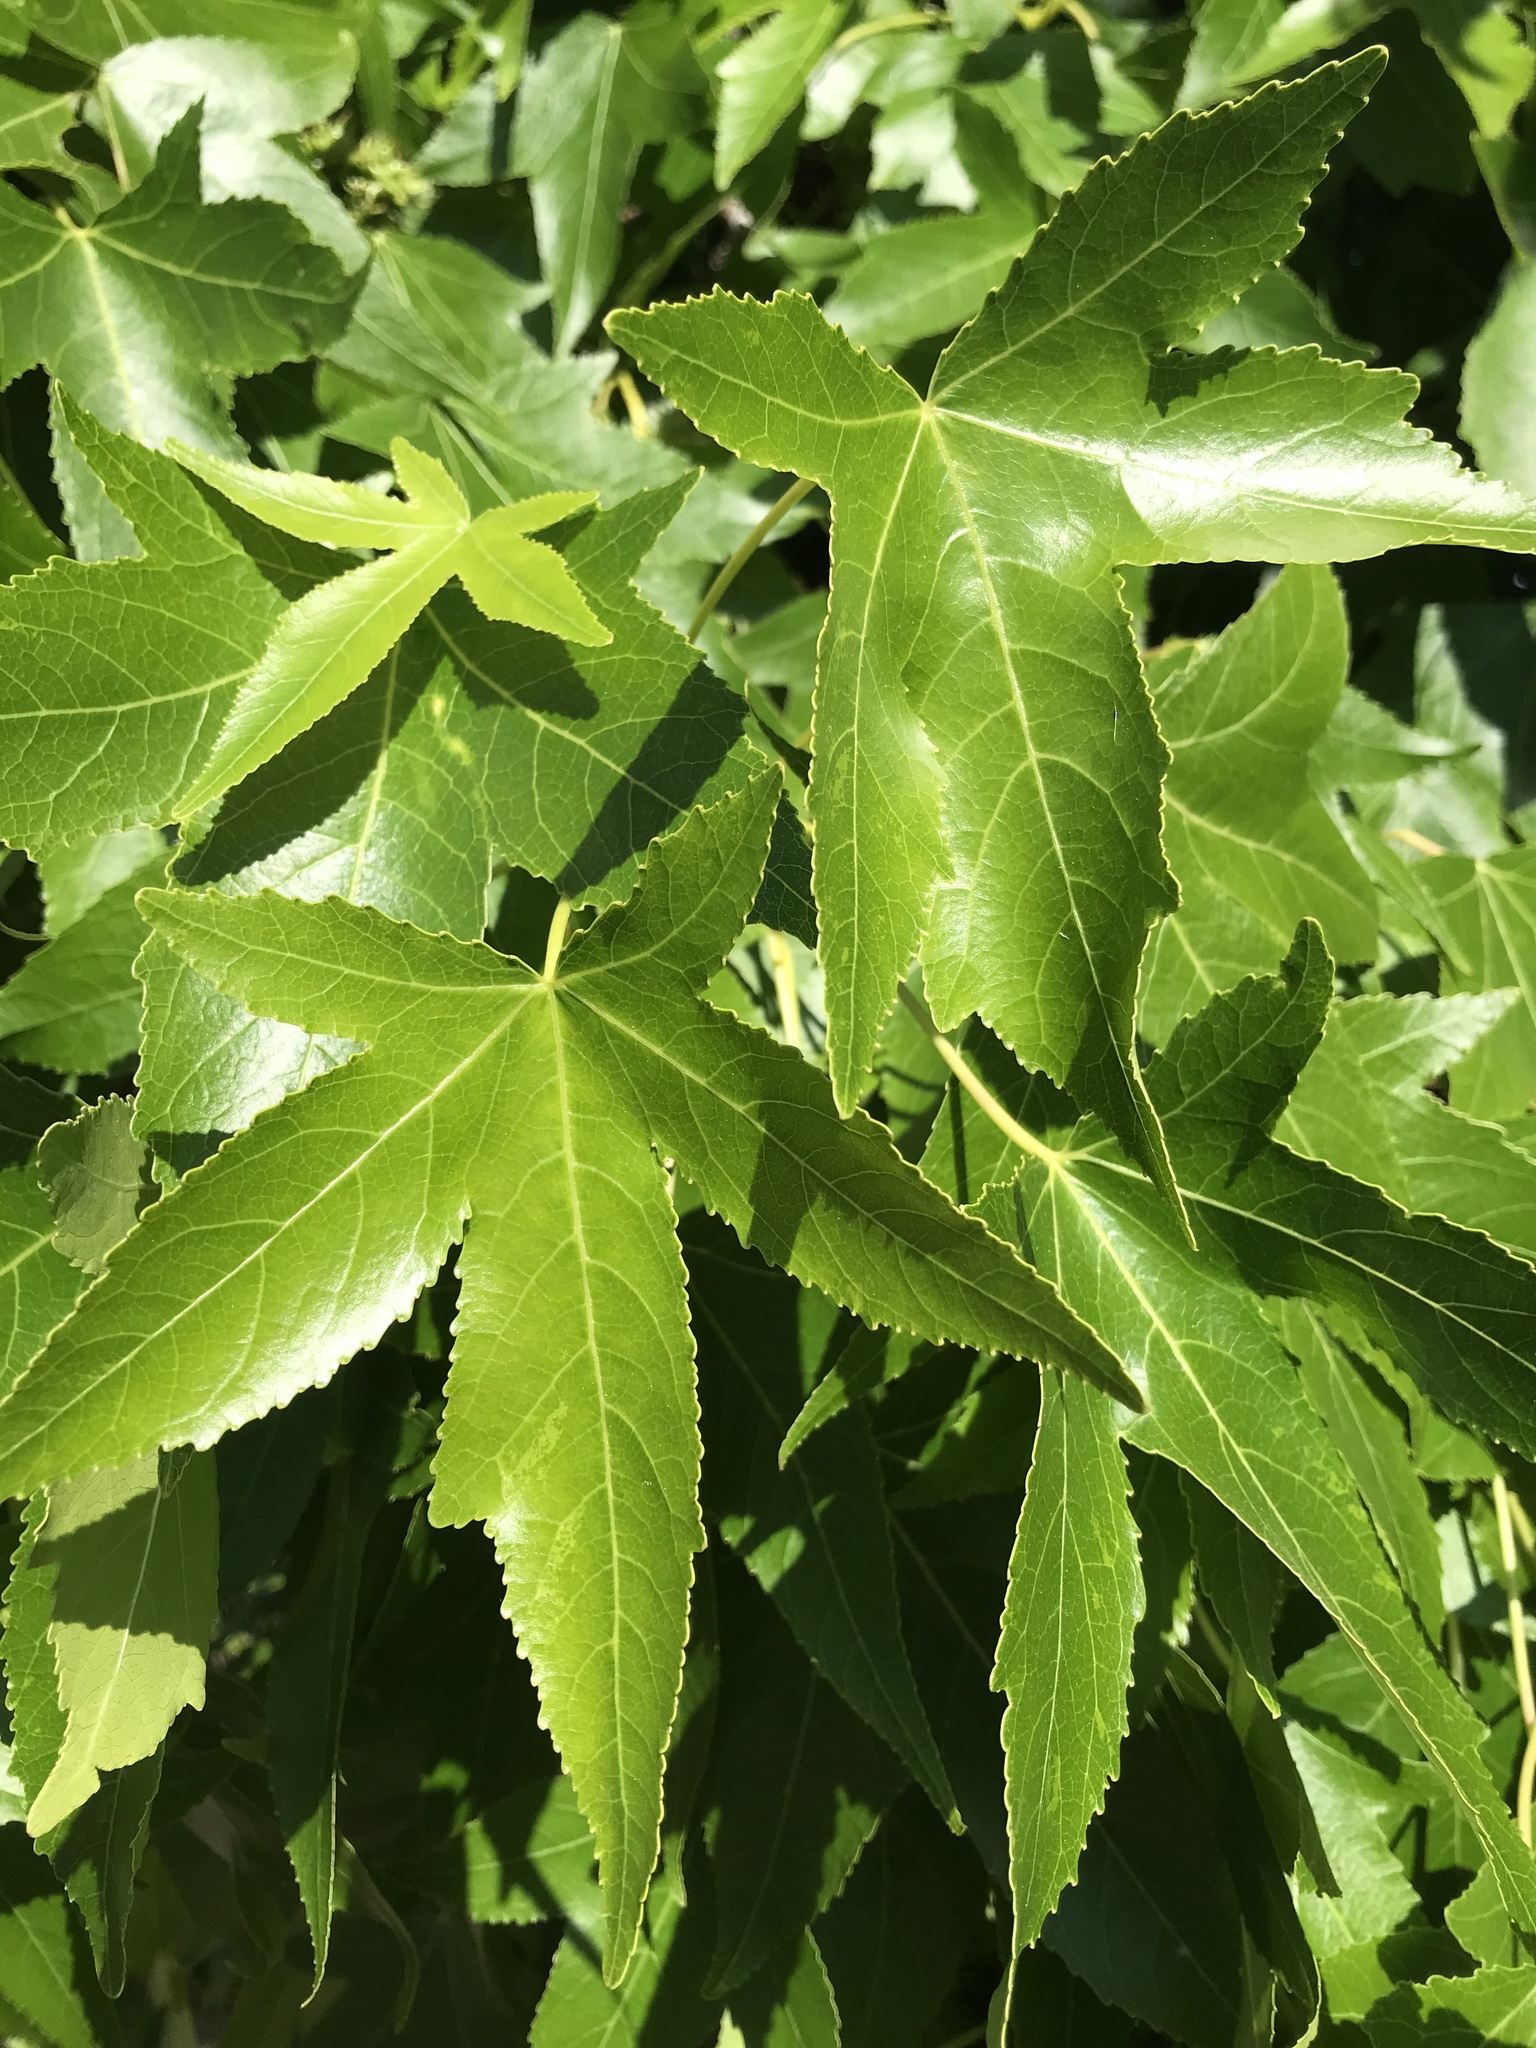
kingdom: Plantae
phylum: Tracheophyta
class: Magnoliopsida
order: Saxifragales
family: Altingiaceae
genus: Liquidambar
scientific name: Liquidambar styraciflua
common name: Sweet gum
